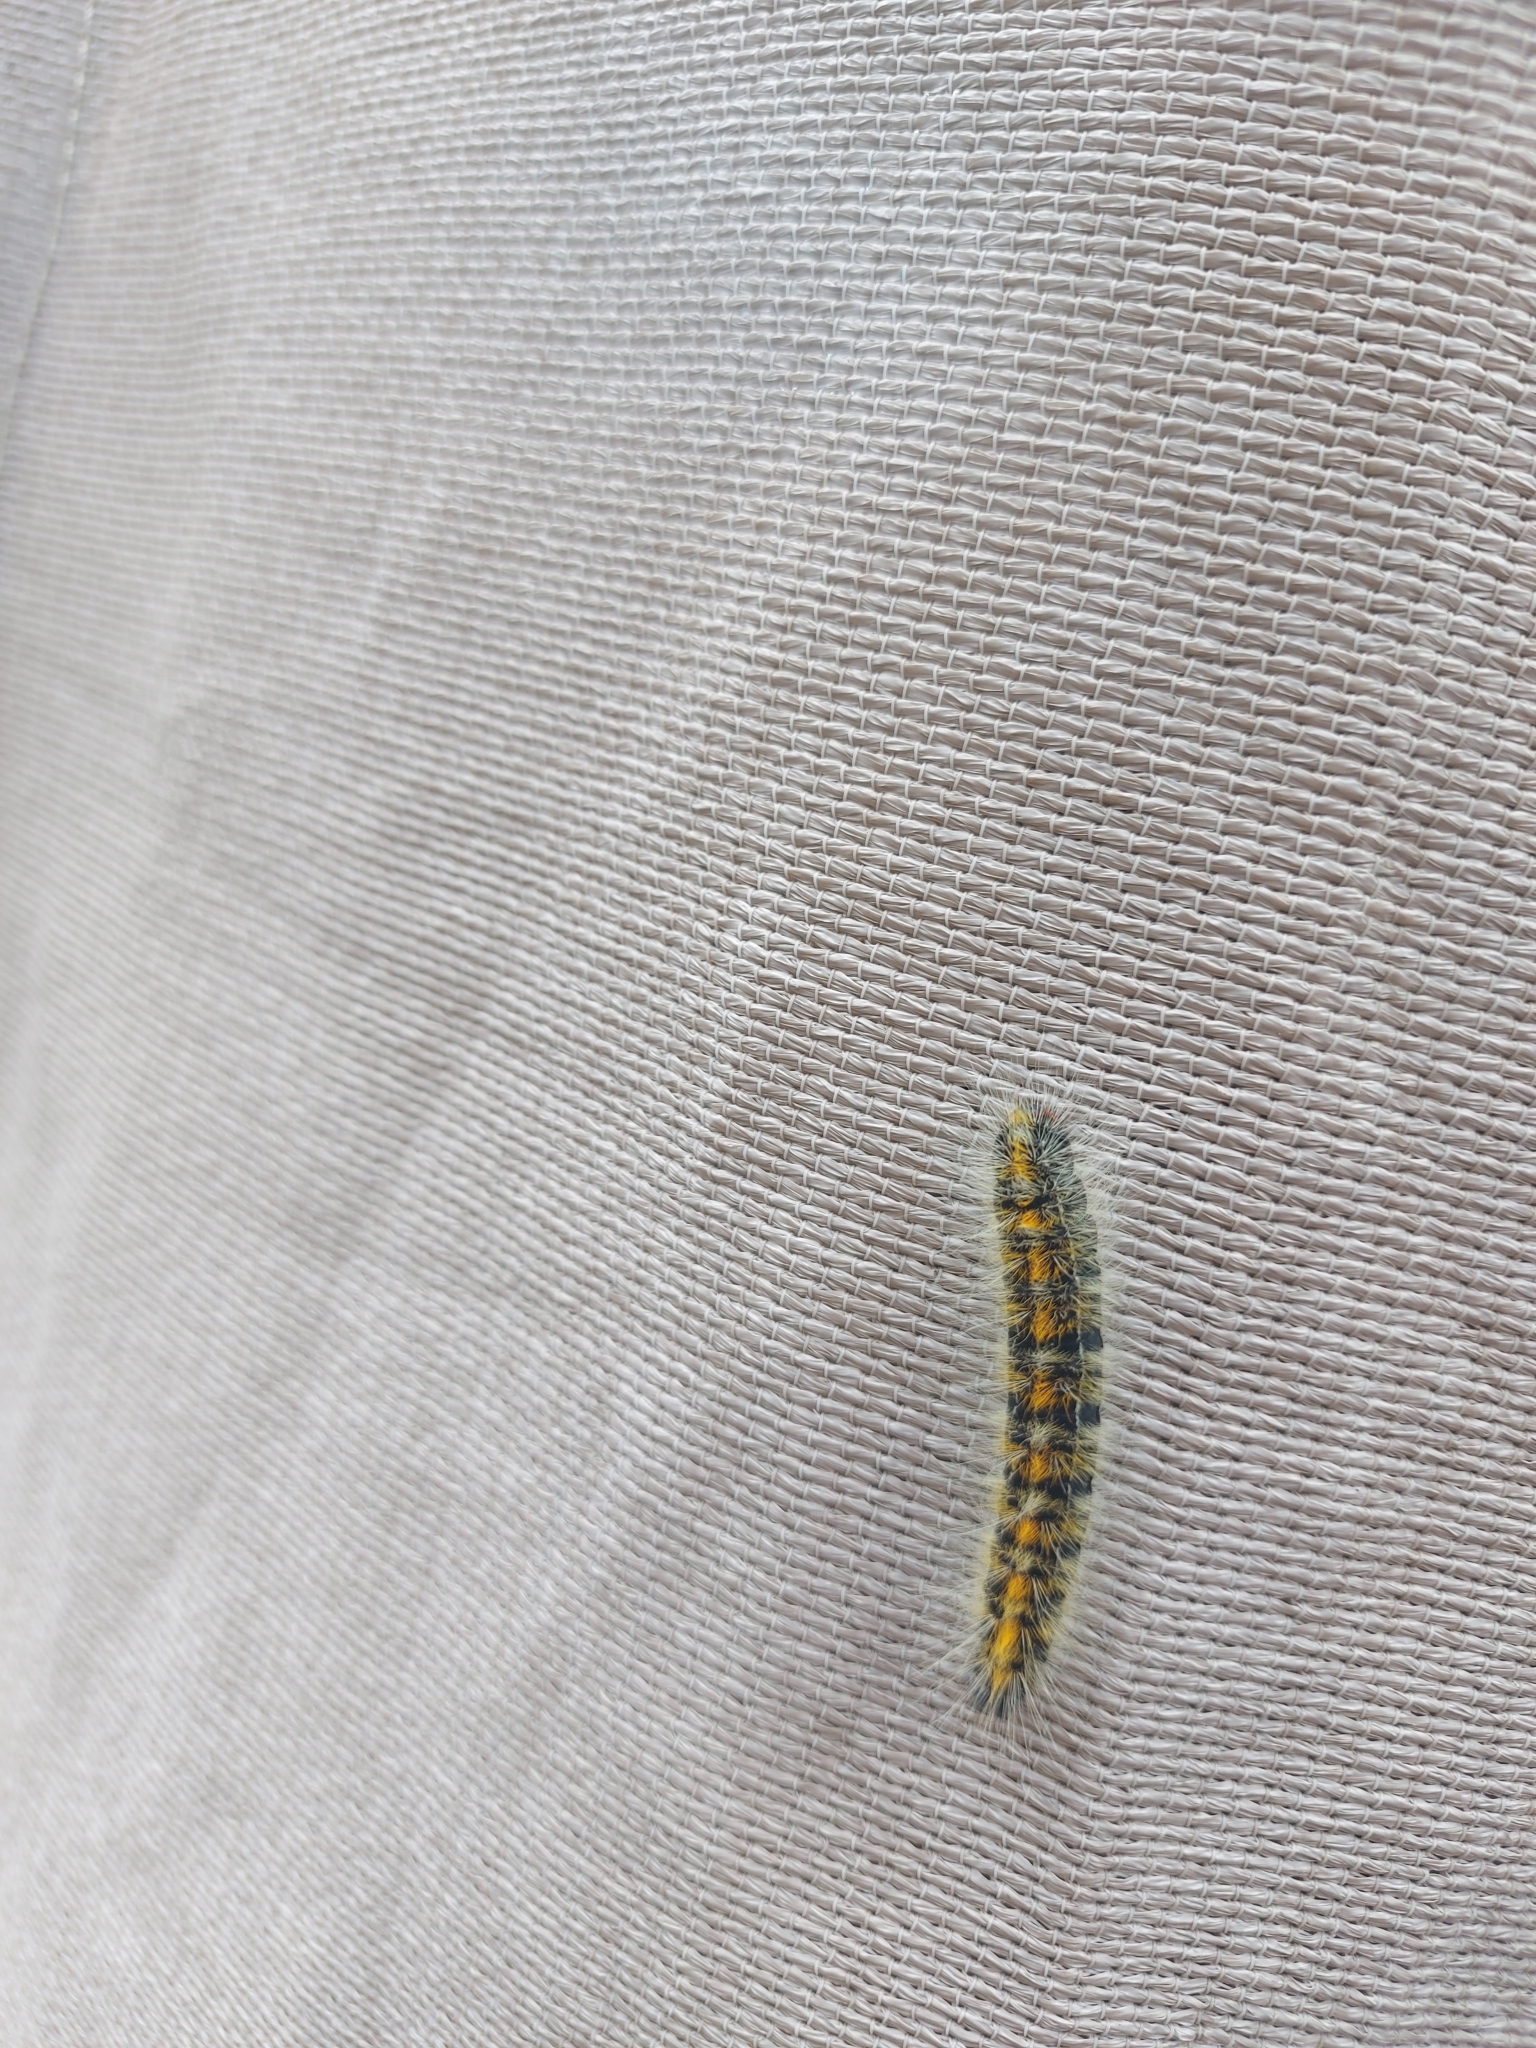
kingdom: Animalia
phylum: Arthropoda
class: Insecta
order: Lepidoptera
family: Lasiocampidae
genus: Bombycomorpha
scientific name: Bombycomorpha bifascia
